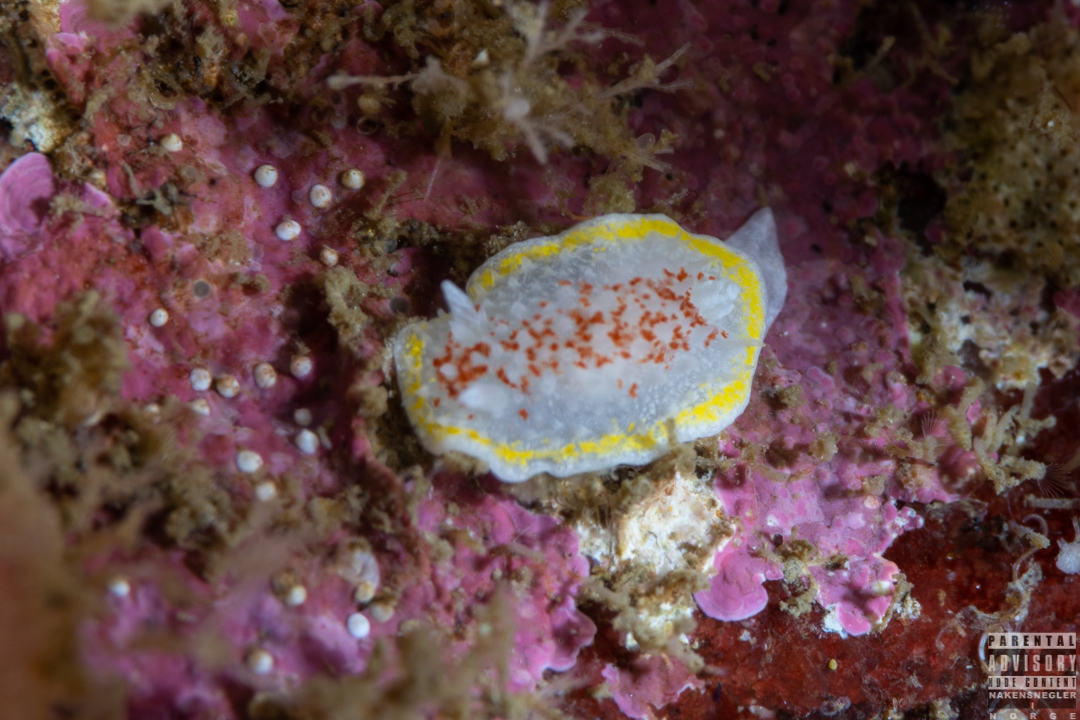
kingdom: Animalia
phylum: Mollusca
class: Gastropoda
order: Nudibranchia
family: Calycidorididae
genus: Diaphorodoris
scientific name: Diaphorodoris luteocincta
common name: Fried egg nudibranch
